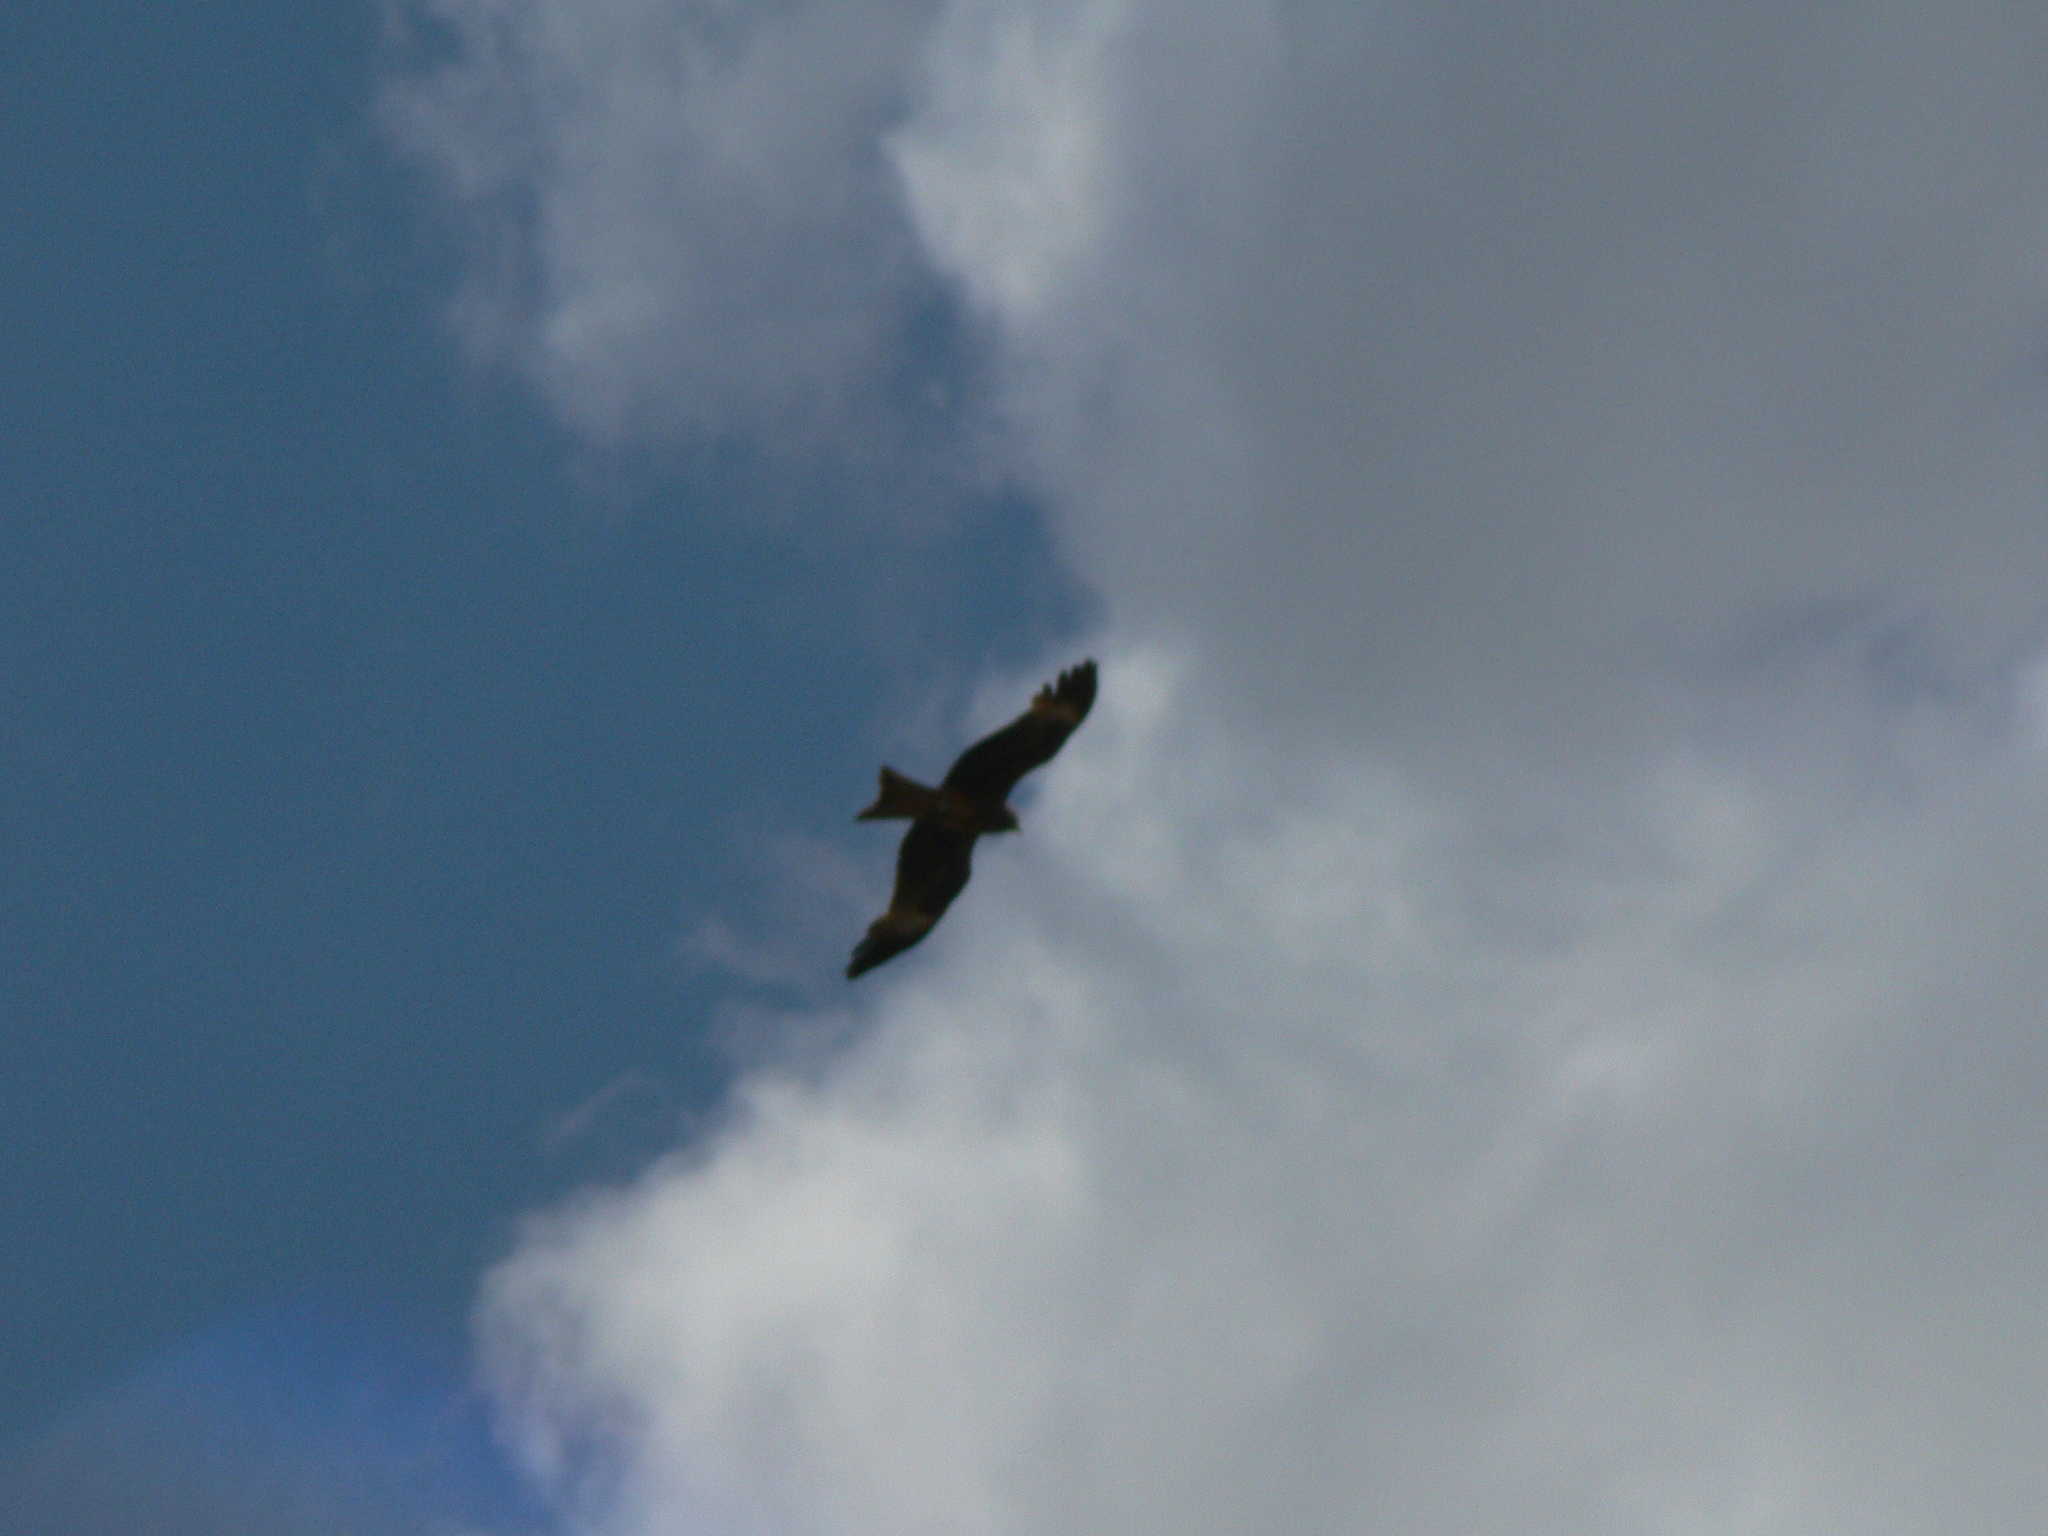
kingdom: Animalia
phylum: Chordata
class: Aves
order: Accipitriformes
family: Accipitridae
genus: Milvus
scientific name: Milvus migrans
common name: Black kite
